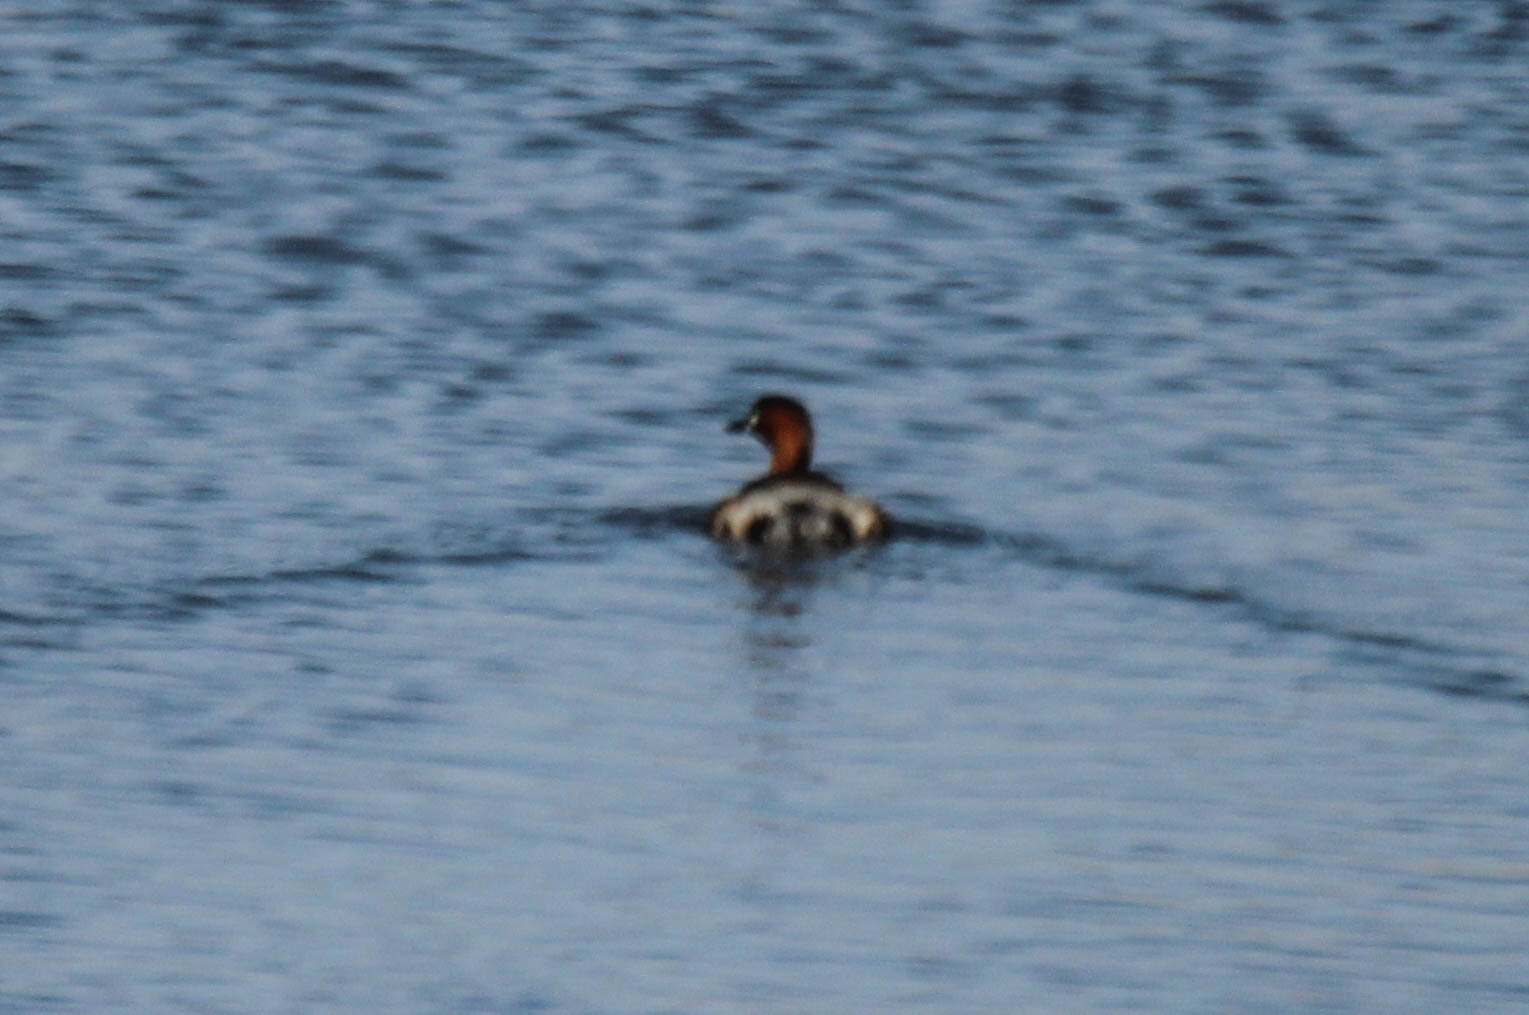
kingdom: Animalia
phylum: Chordata
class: Aves
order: Podicipediformes
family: Podicipedidae
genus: Tachybaptus
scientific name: Tachybaptus ruficollis
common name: Little grebe
